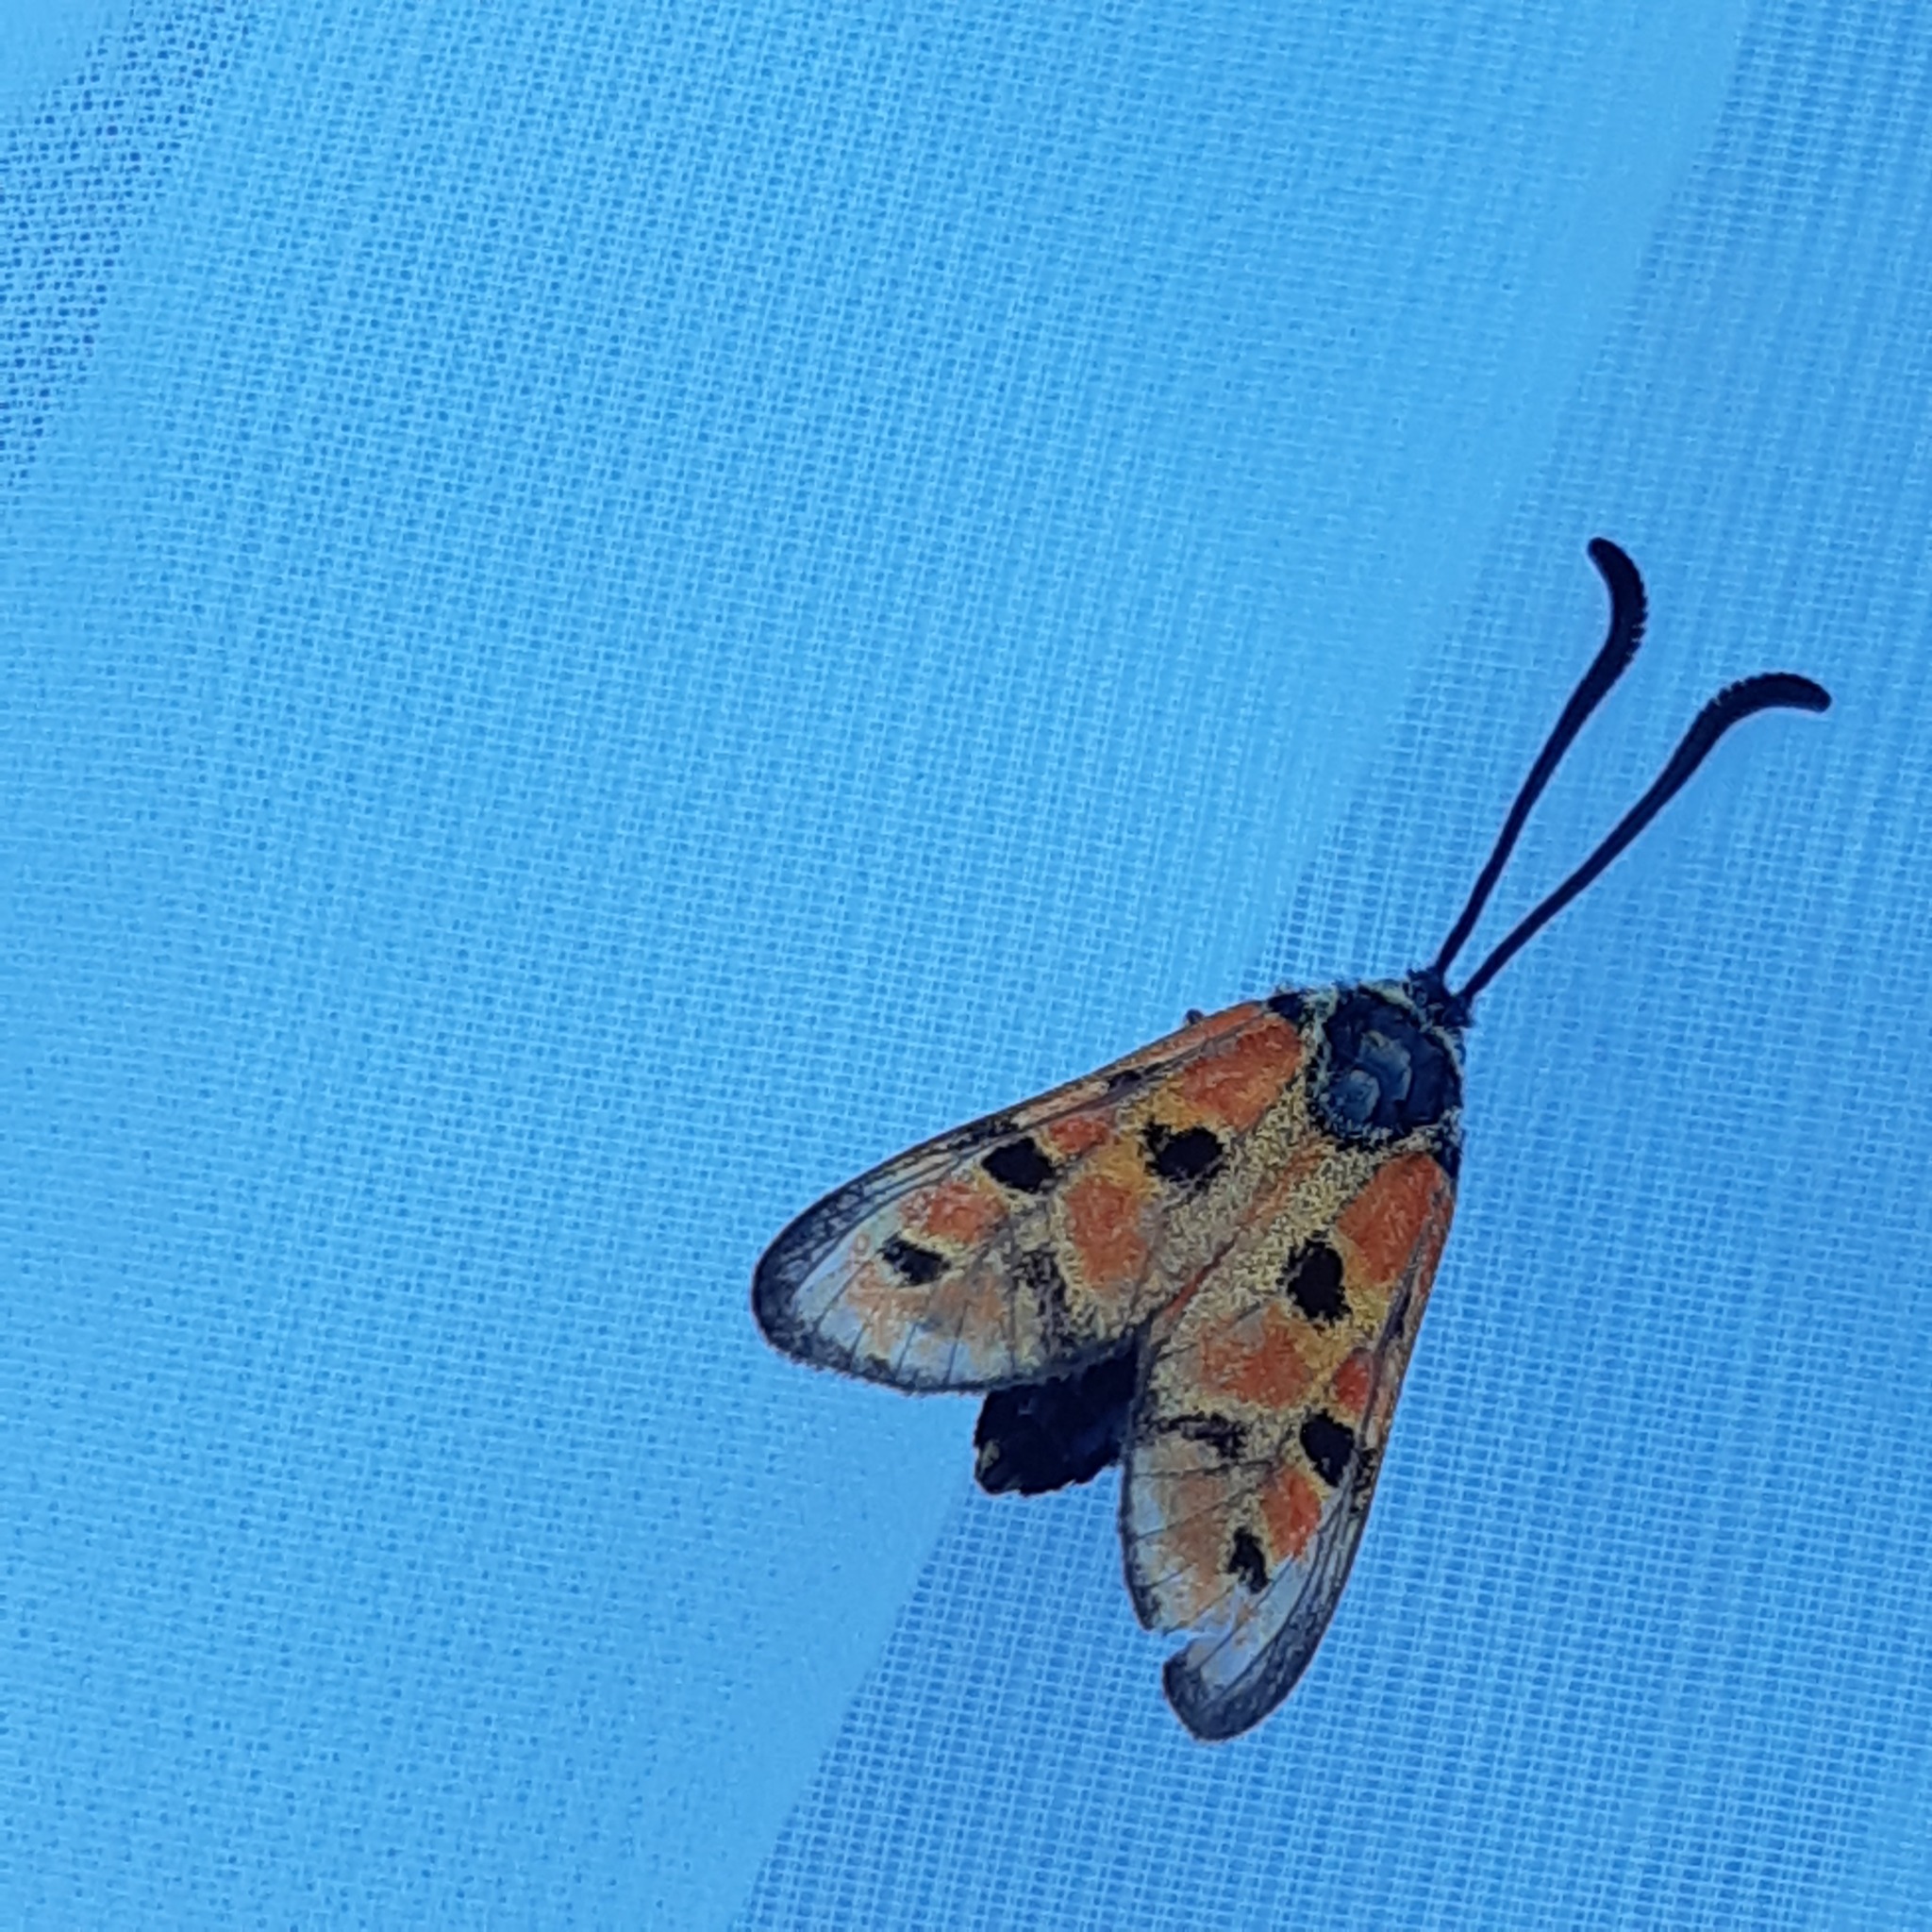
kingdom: Animalia
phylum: Arthropoda
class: Insecta
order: Lepidoptera
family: Zygaenidae
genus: Zygaena
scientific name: Zygaena hilaris
